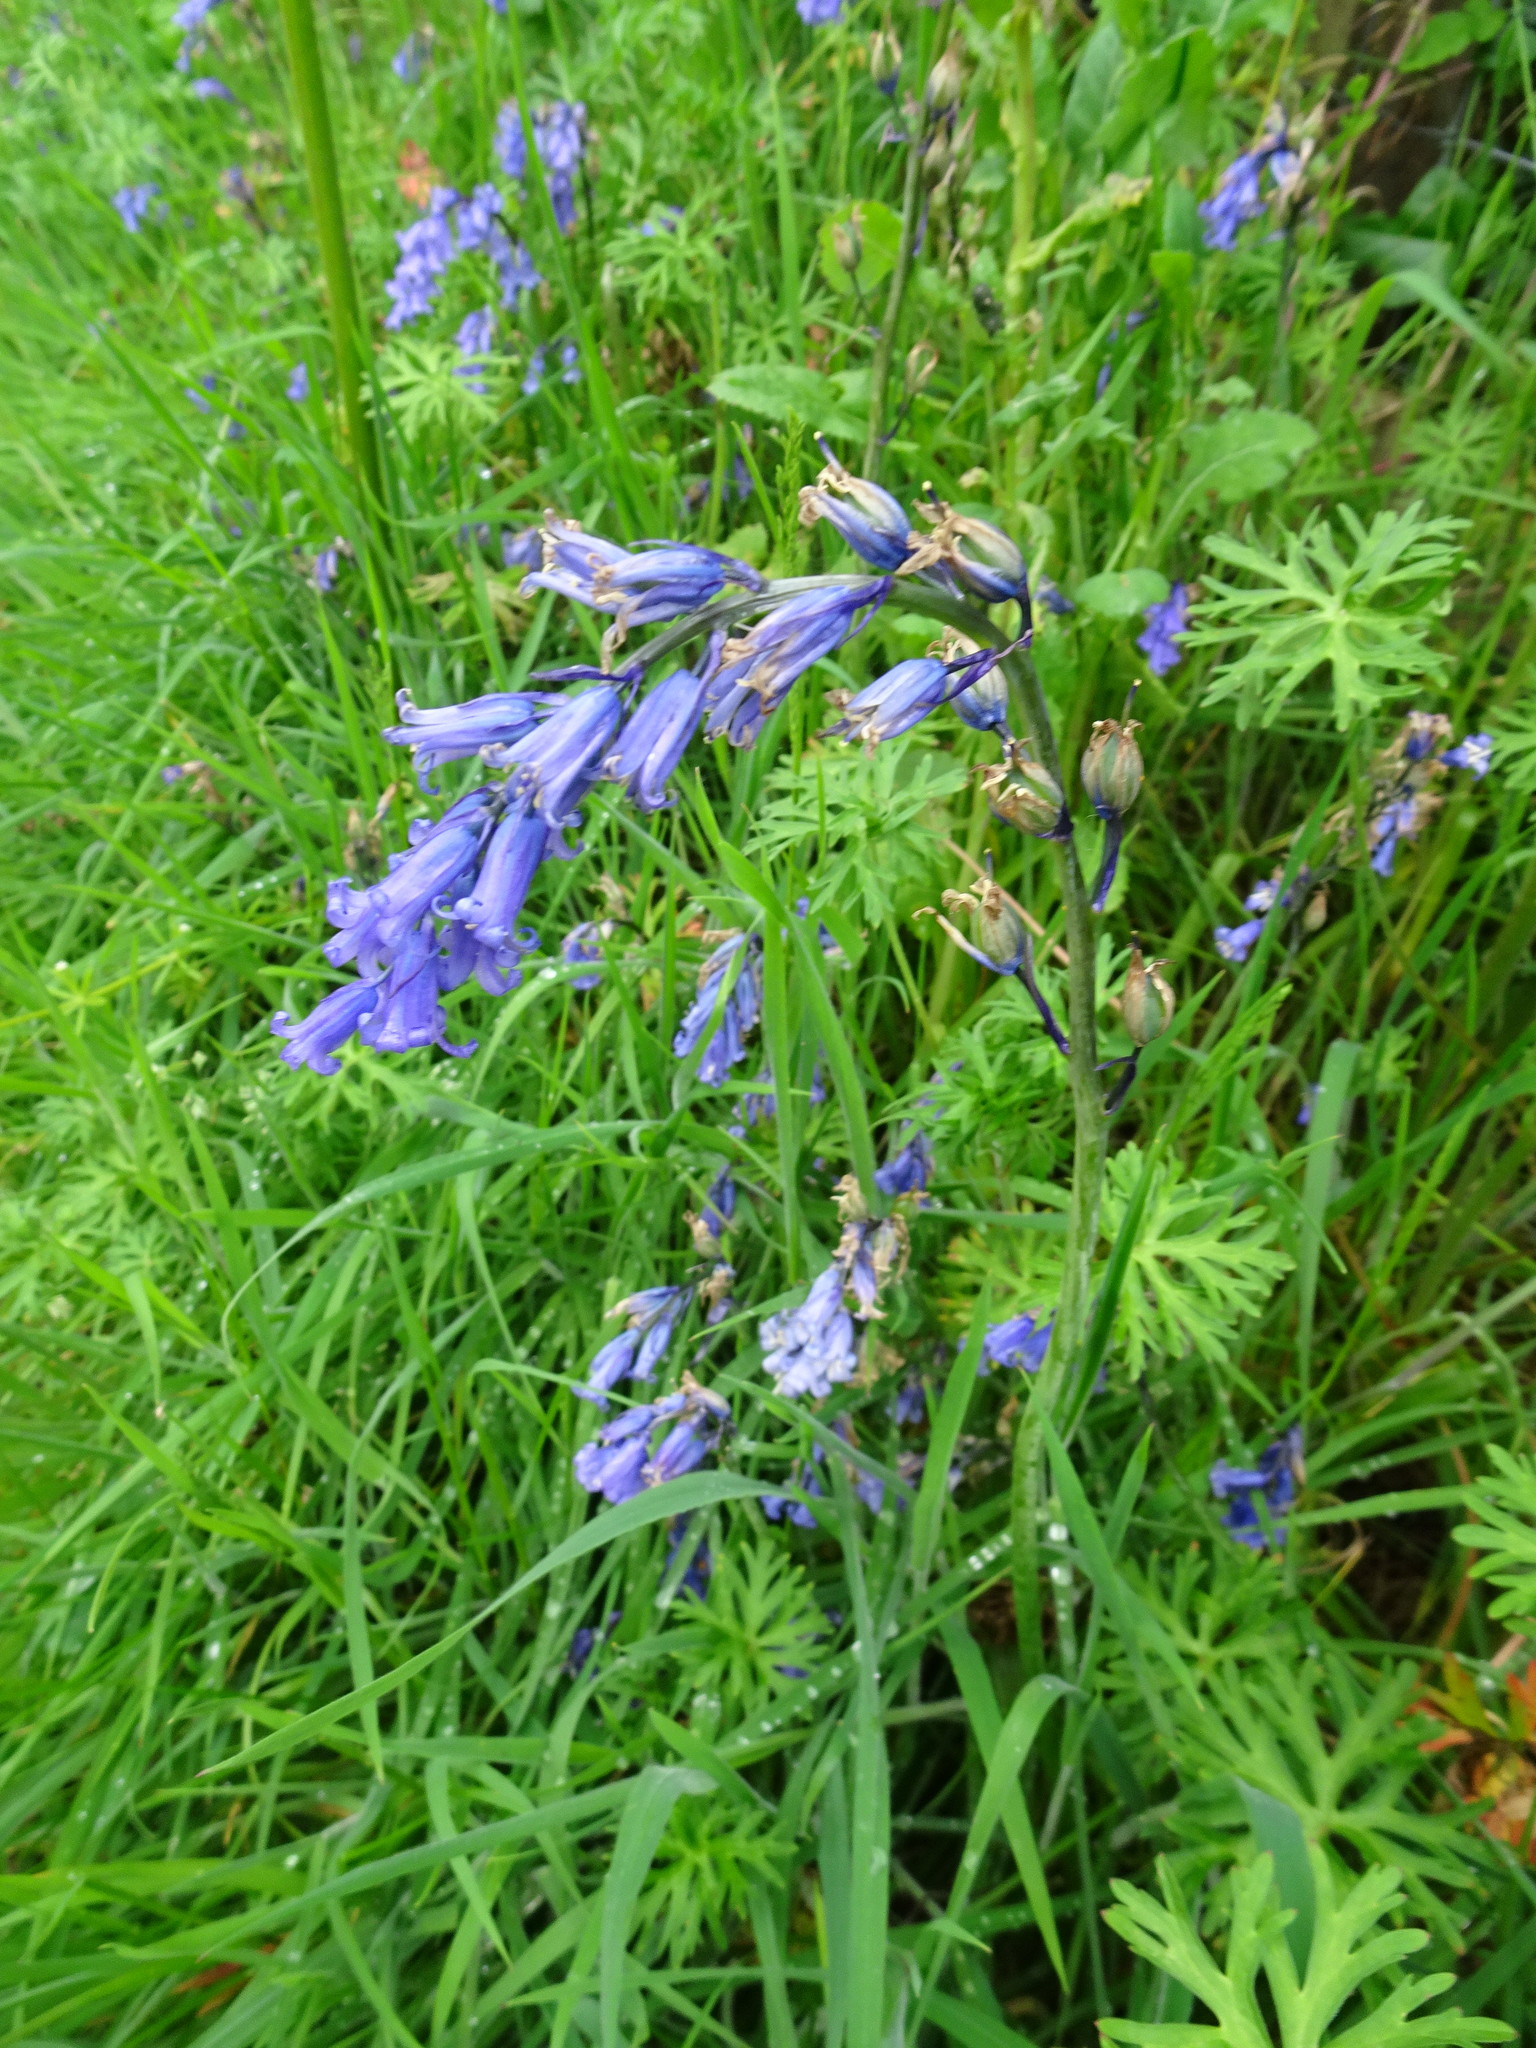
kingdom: Plantae
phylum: Tracheophyta
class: Liliopsida
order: Asparagales
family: Asparagaceae
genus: Hyacinthoides
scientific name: Hyacinthoides non-scripta
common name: Bluebell
